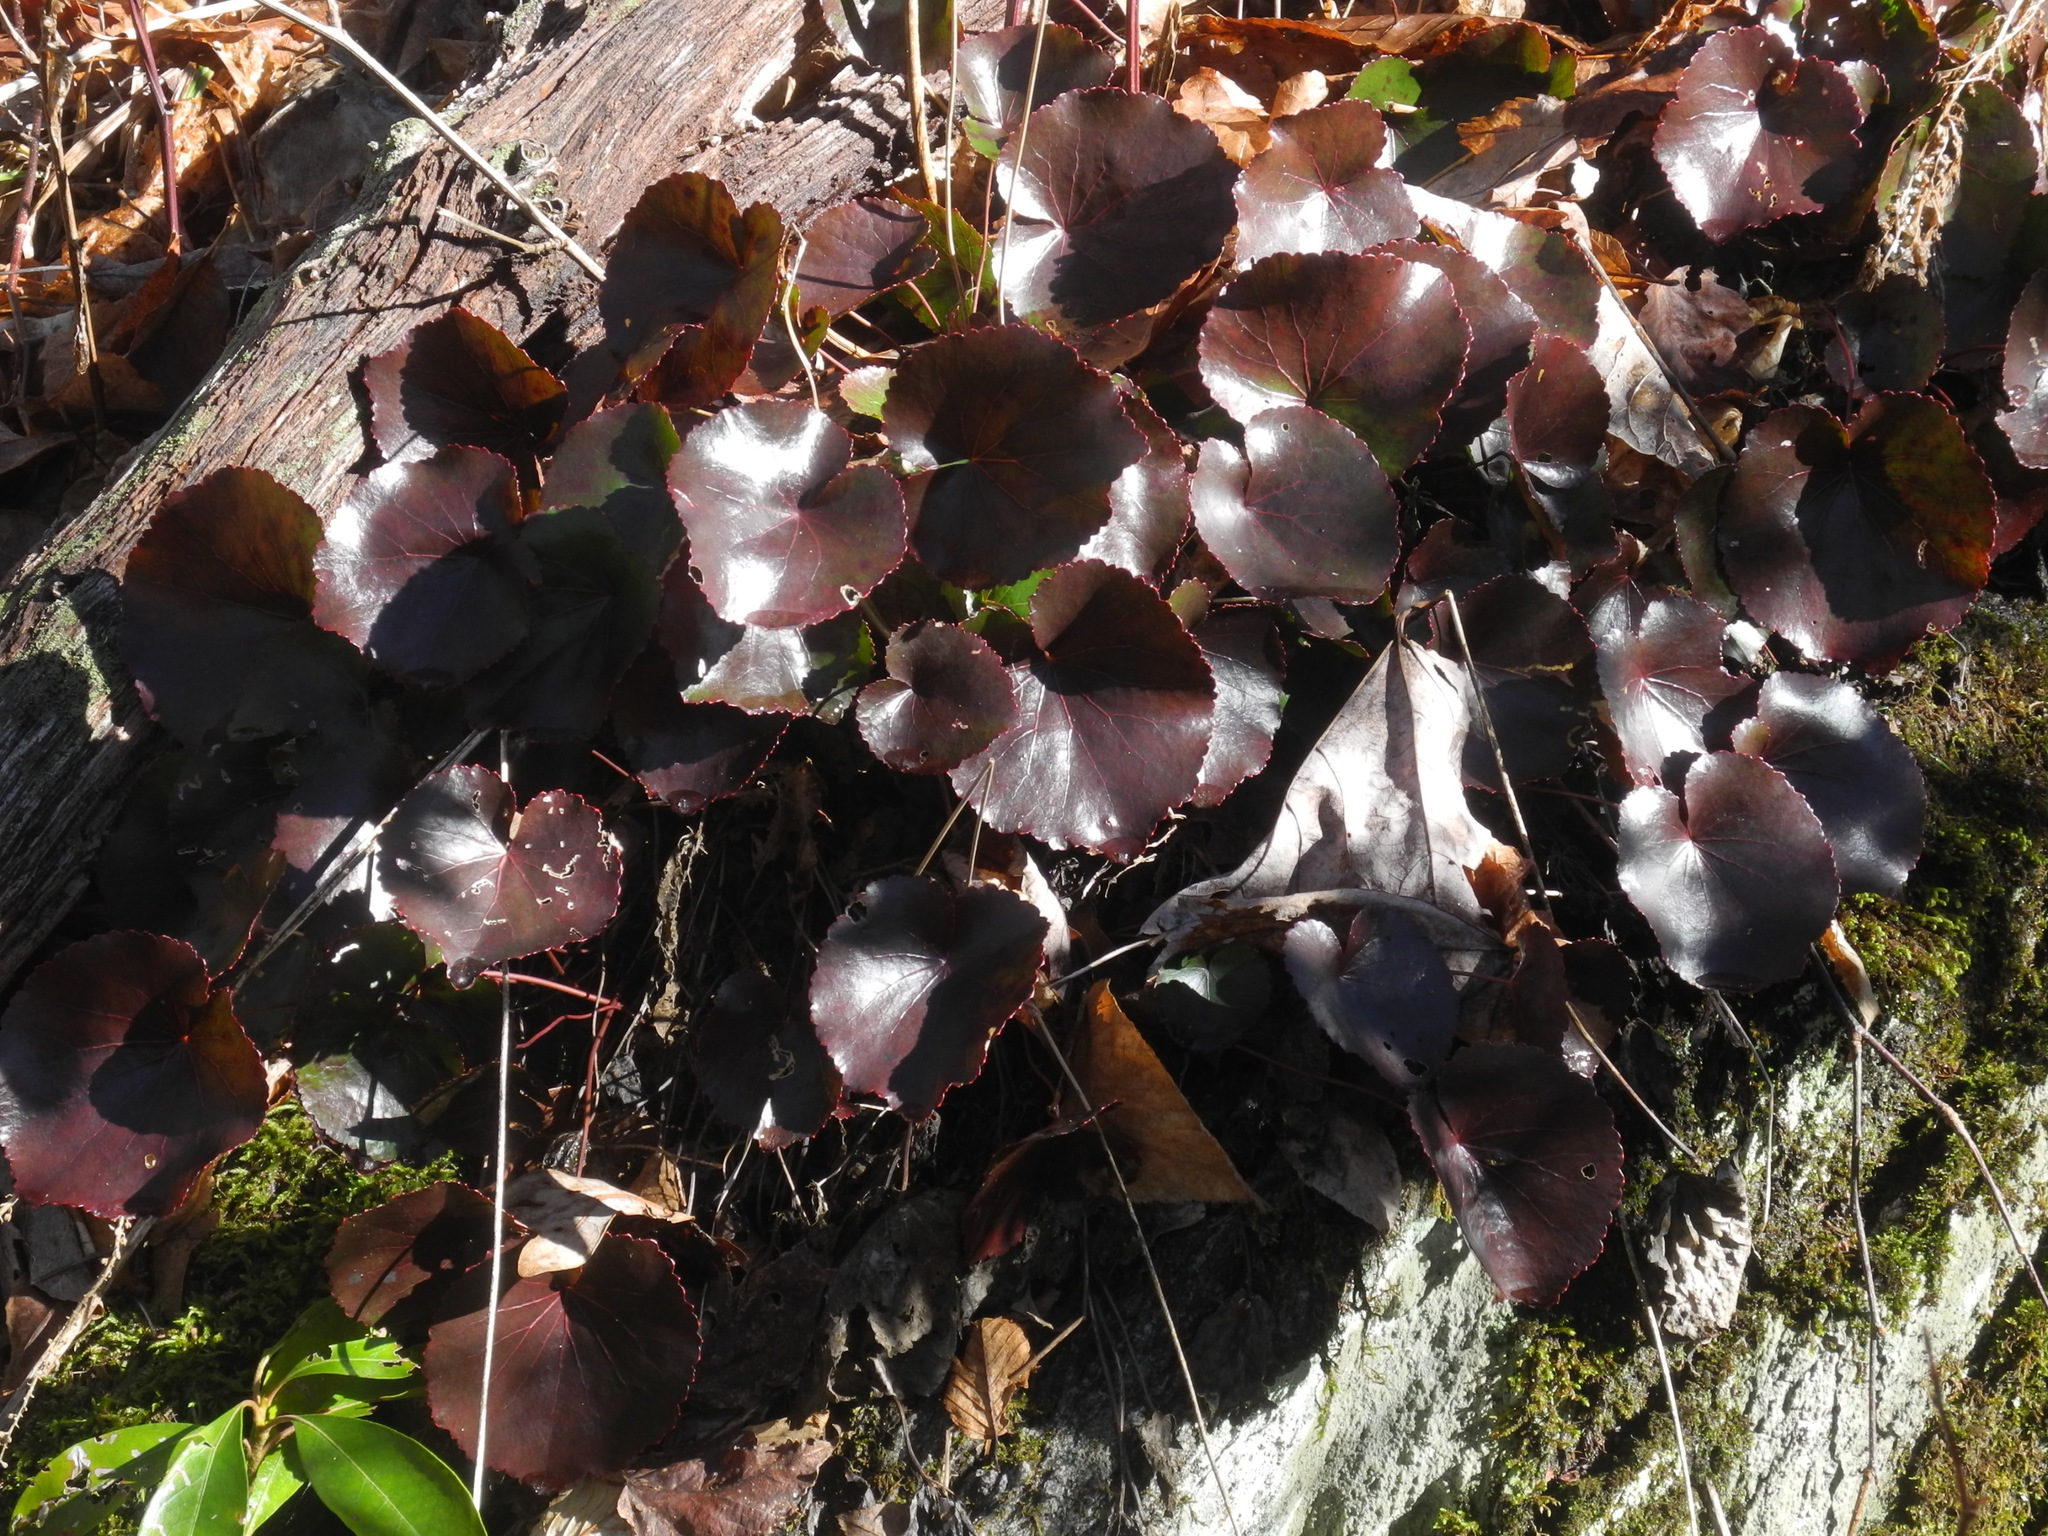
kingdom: Plantae
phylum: Tracheophyta
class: Magnoliopsida
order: Ericales
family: Diapensiaceae
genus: Galax
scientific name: Galax urceolata
